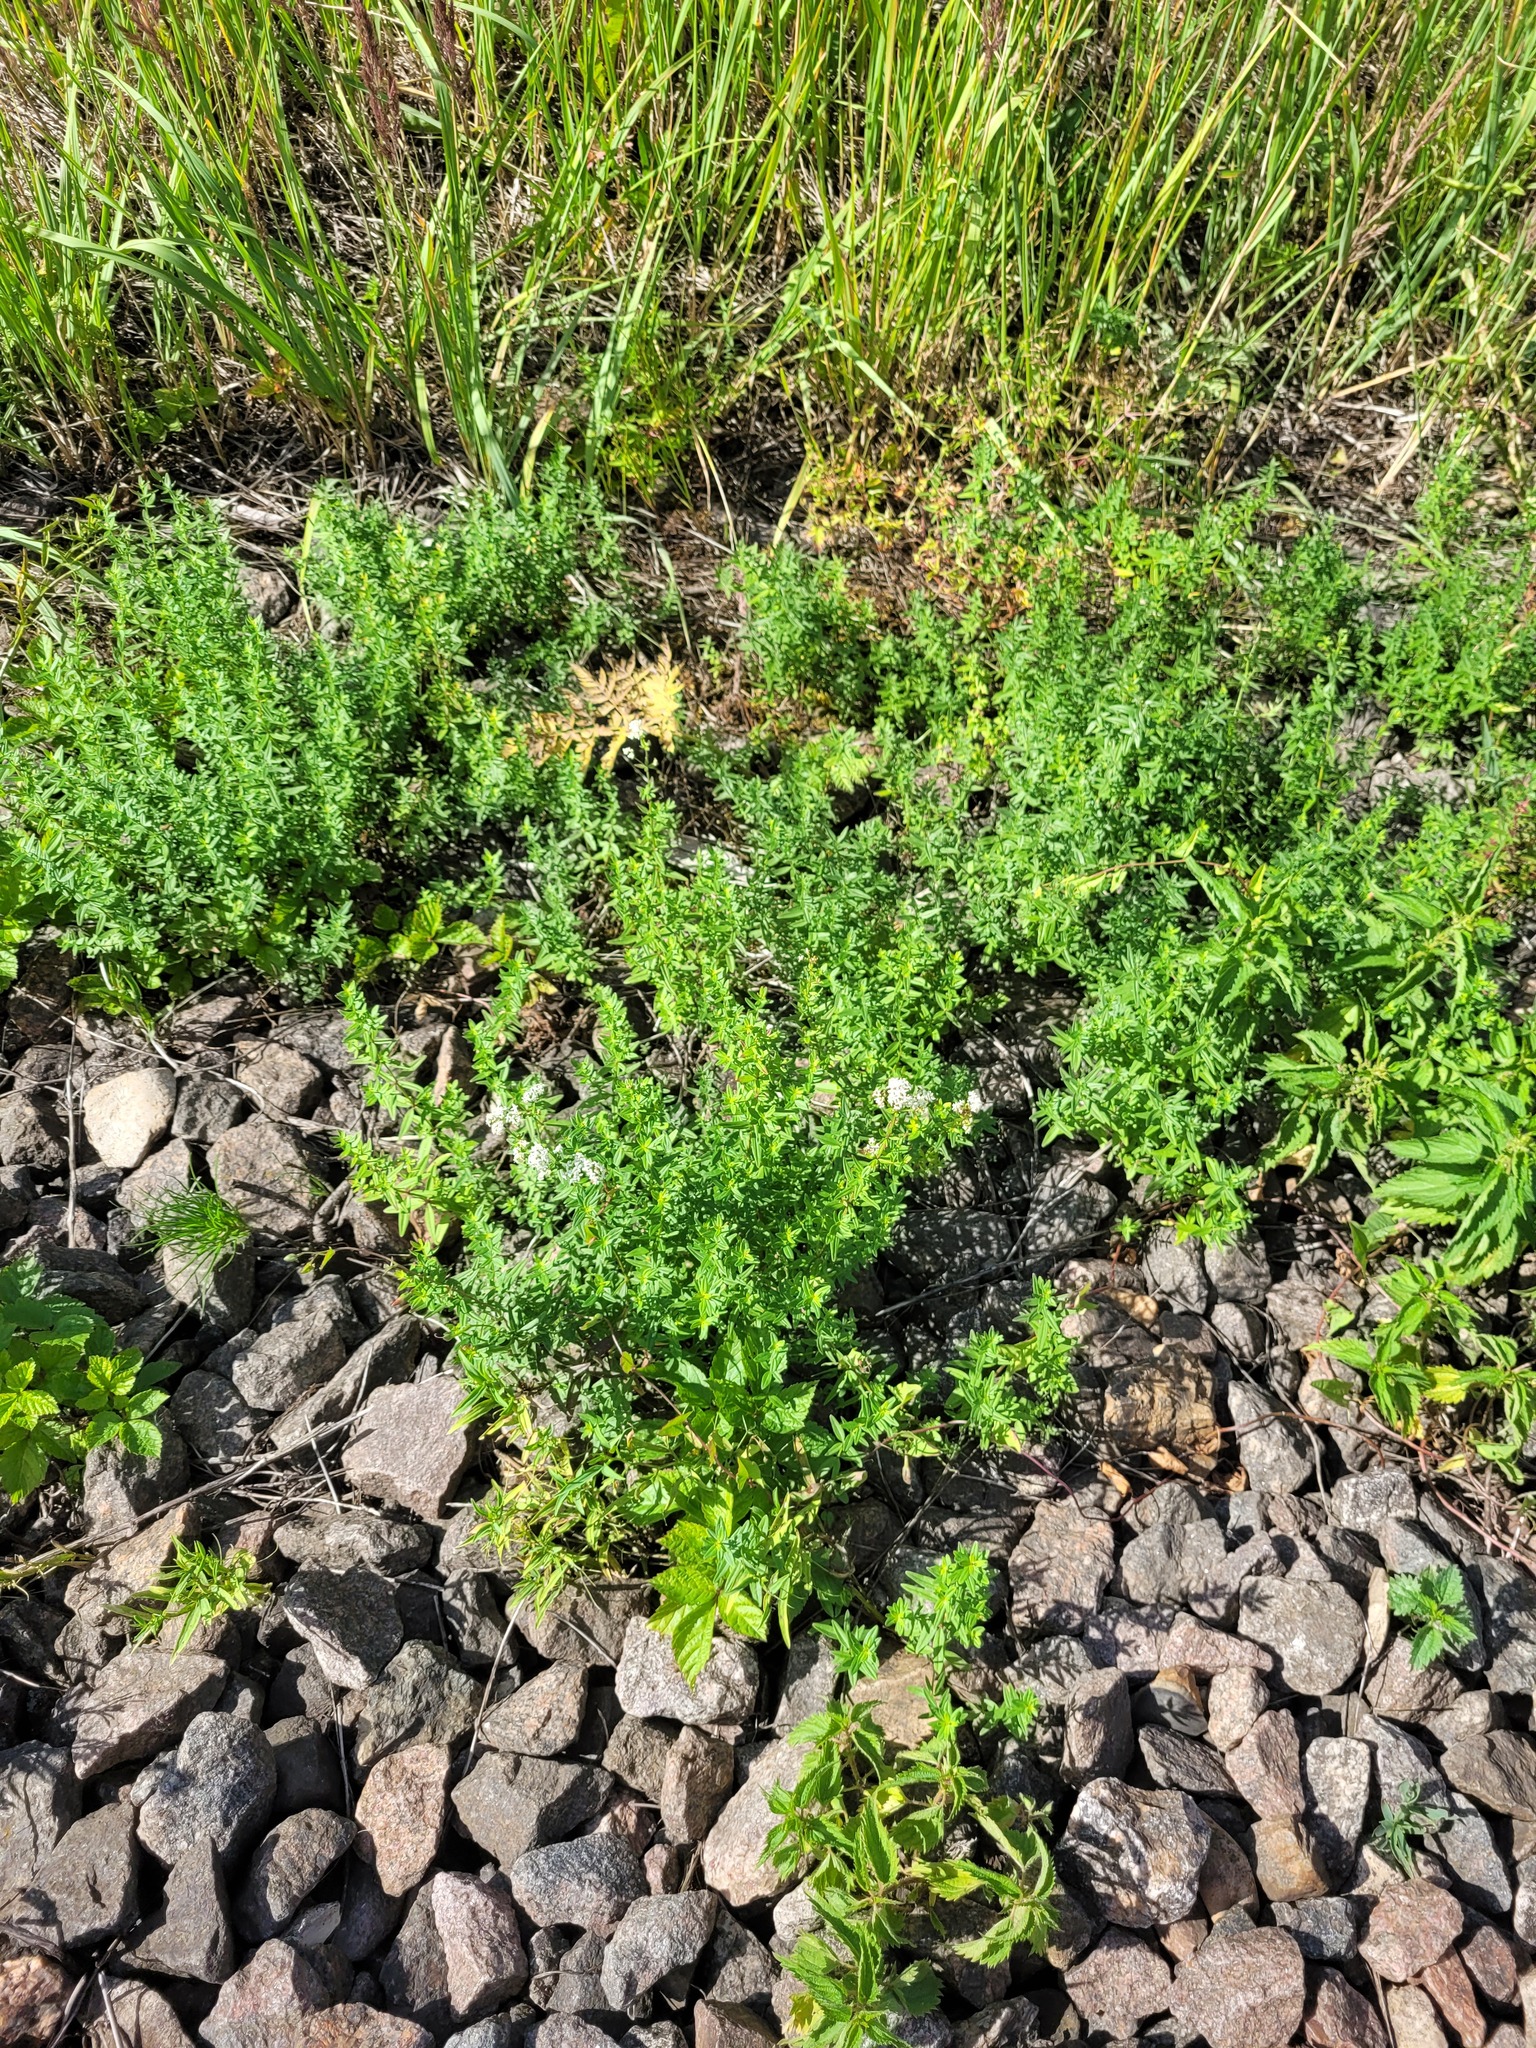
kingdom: Plantae
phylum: Tracheophyta
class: Magnoliopsida
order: Gentianales
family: Rubiaceae
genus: Galium
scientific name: Galium boreale
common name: Northern bedstraw
